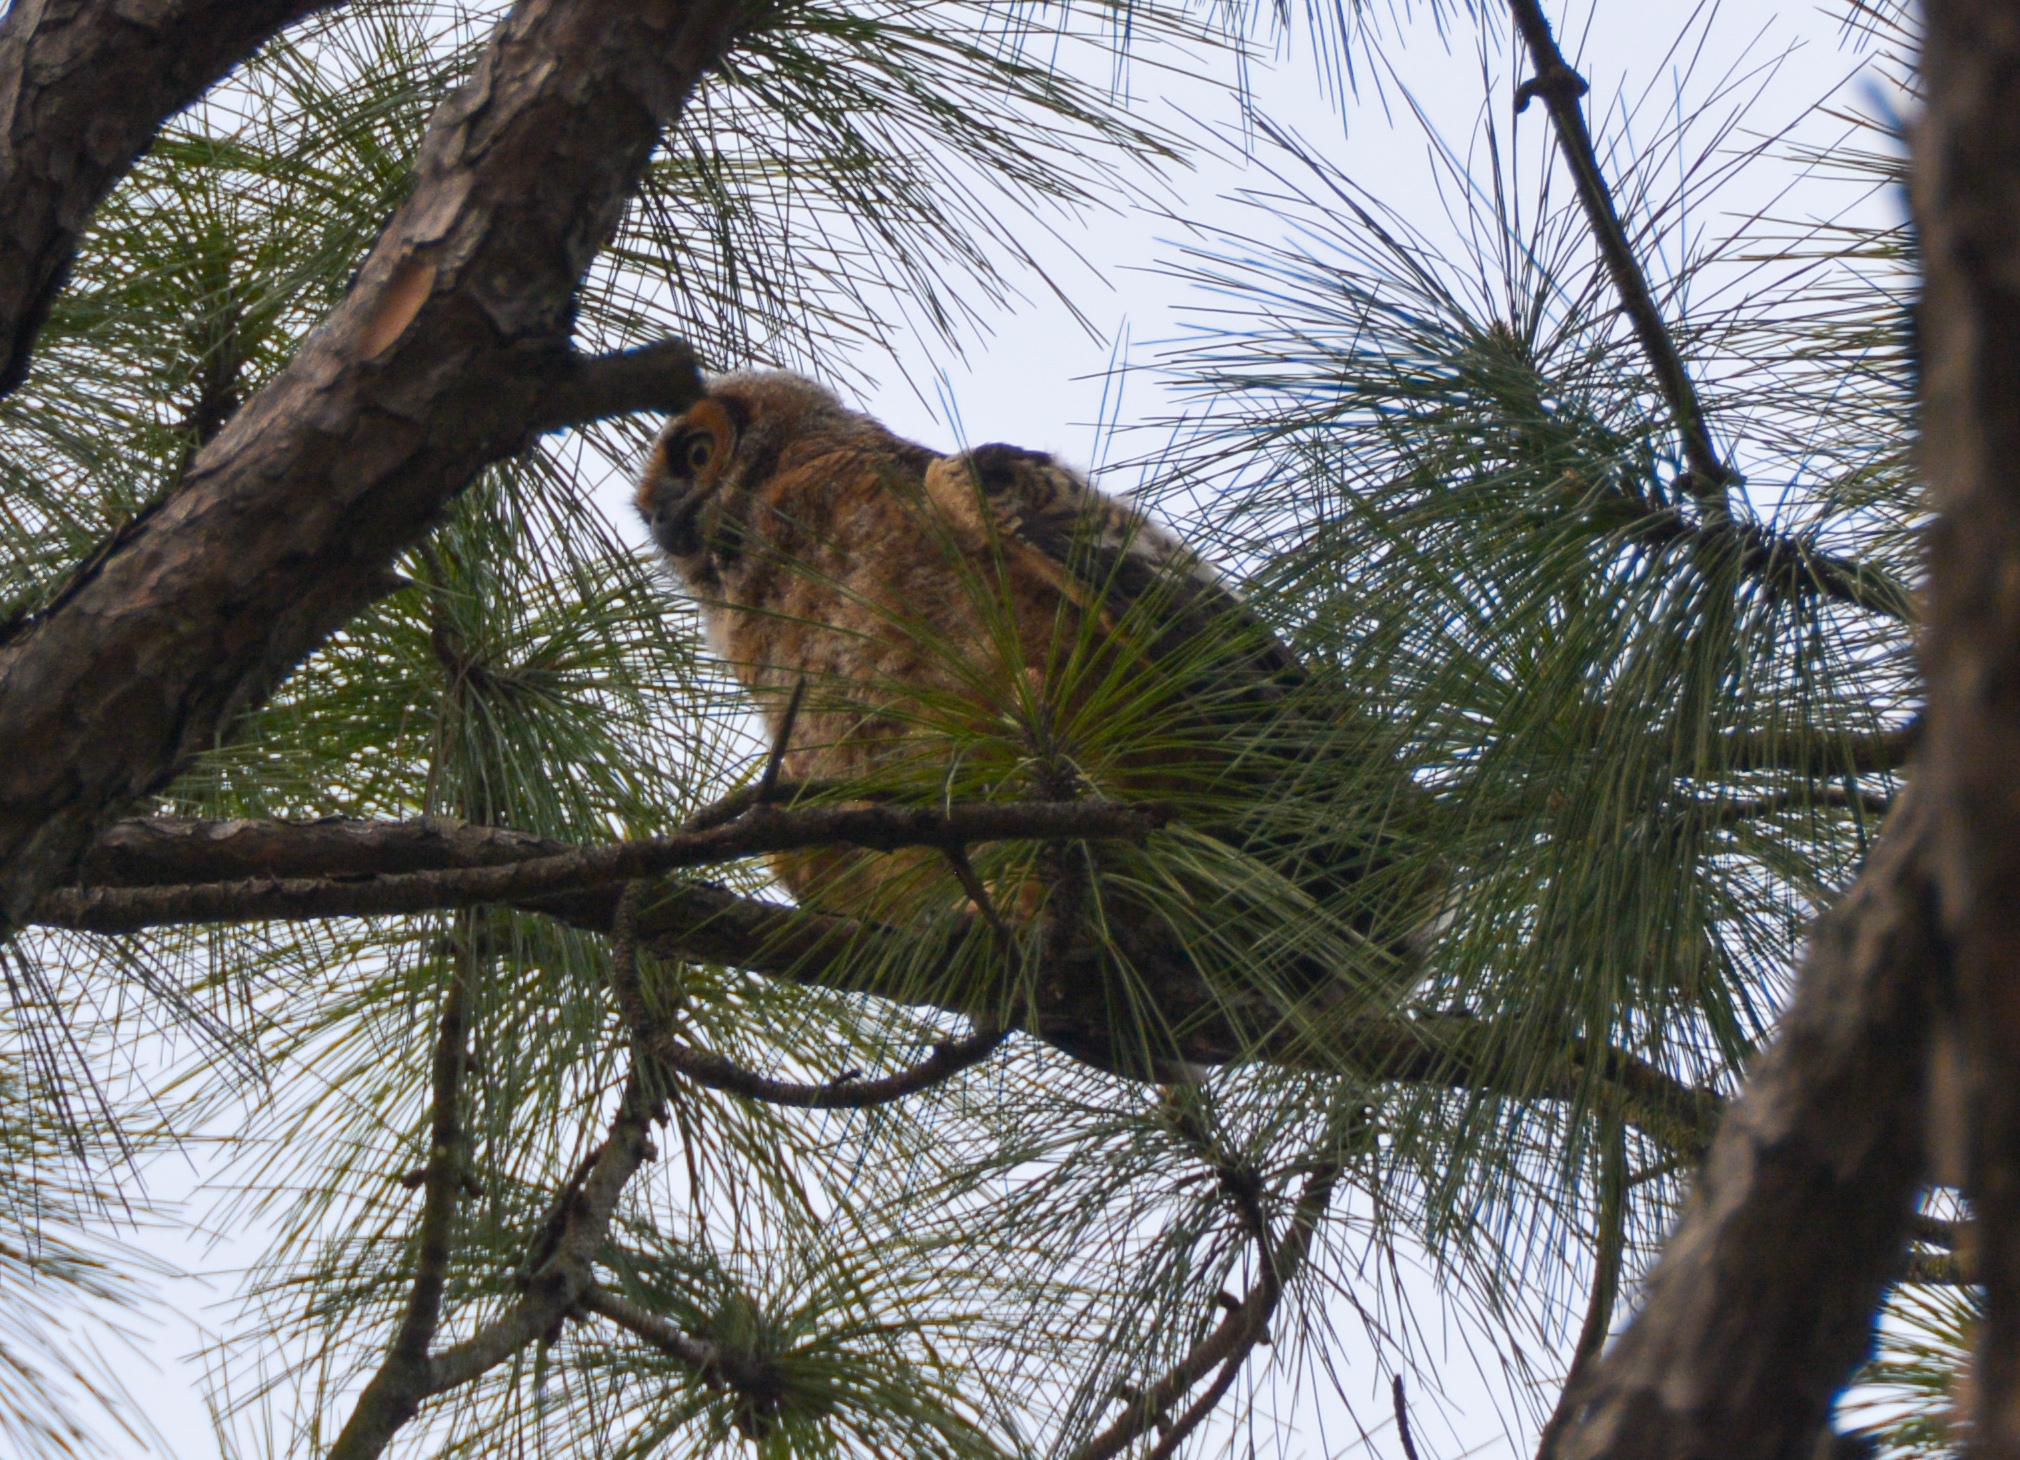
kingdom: Animalia
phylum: Chordata
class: Aves
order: Strigiformes
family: Strigidae
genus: Bubo
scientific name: Bubo virginianus
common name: Great horned owl
